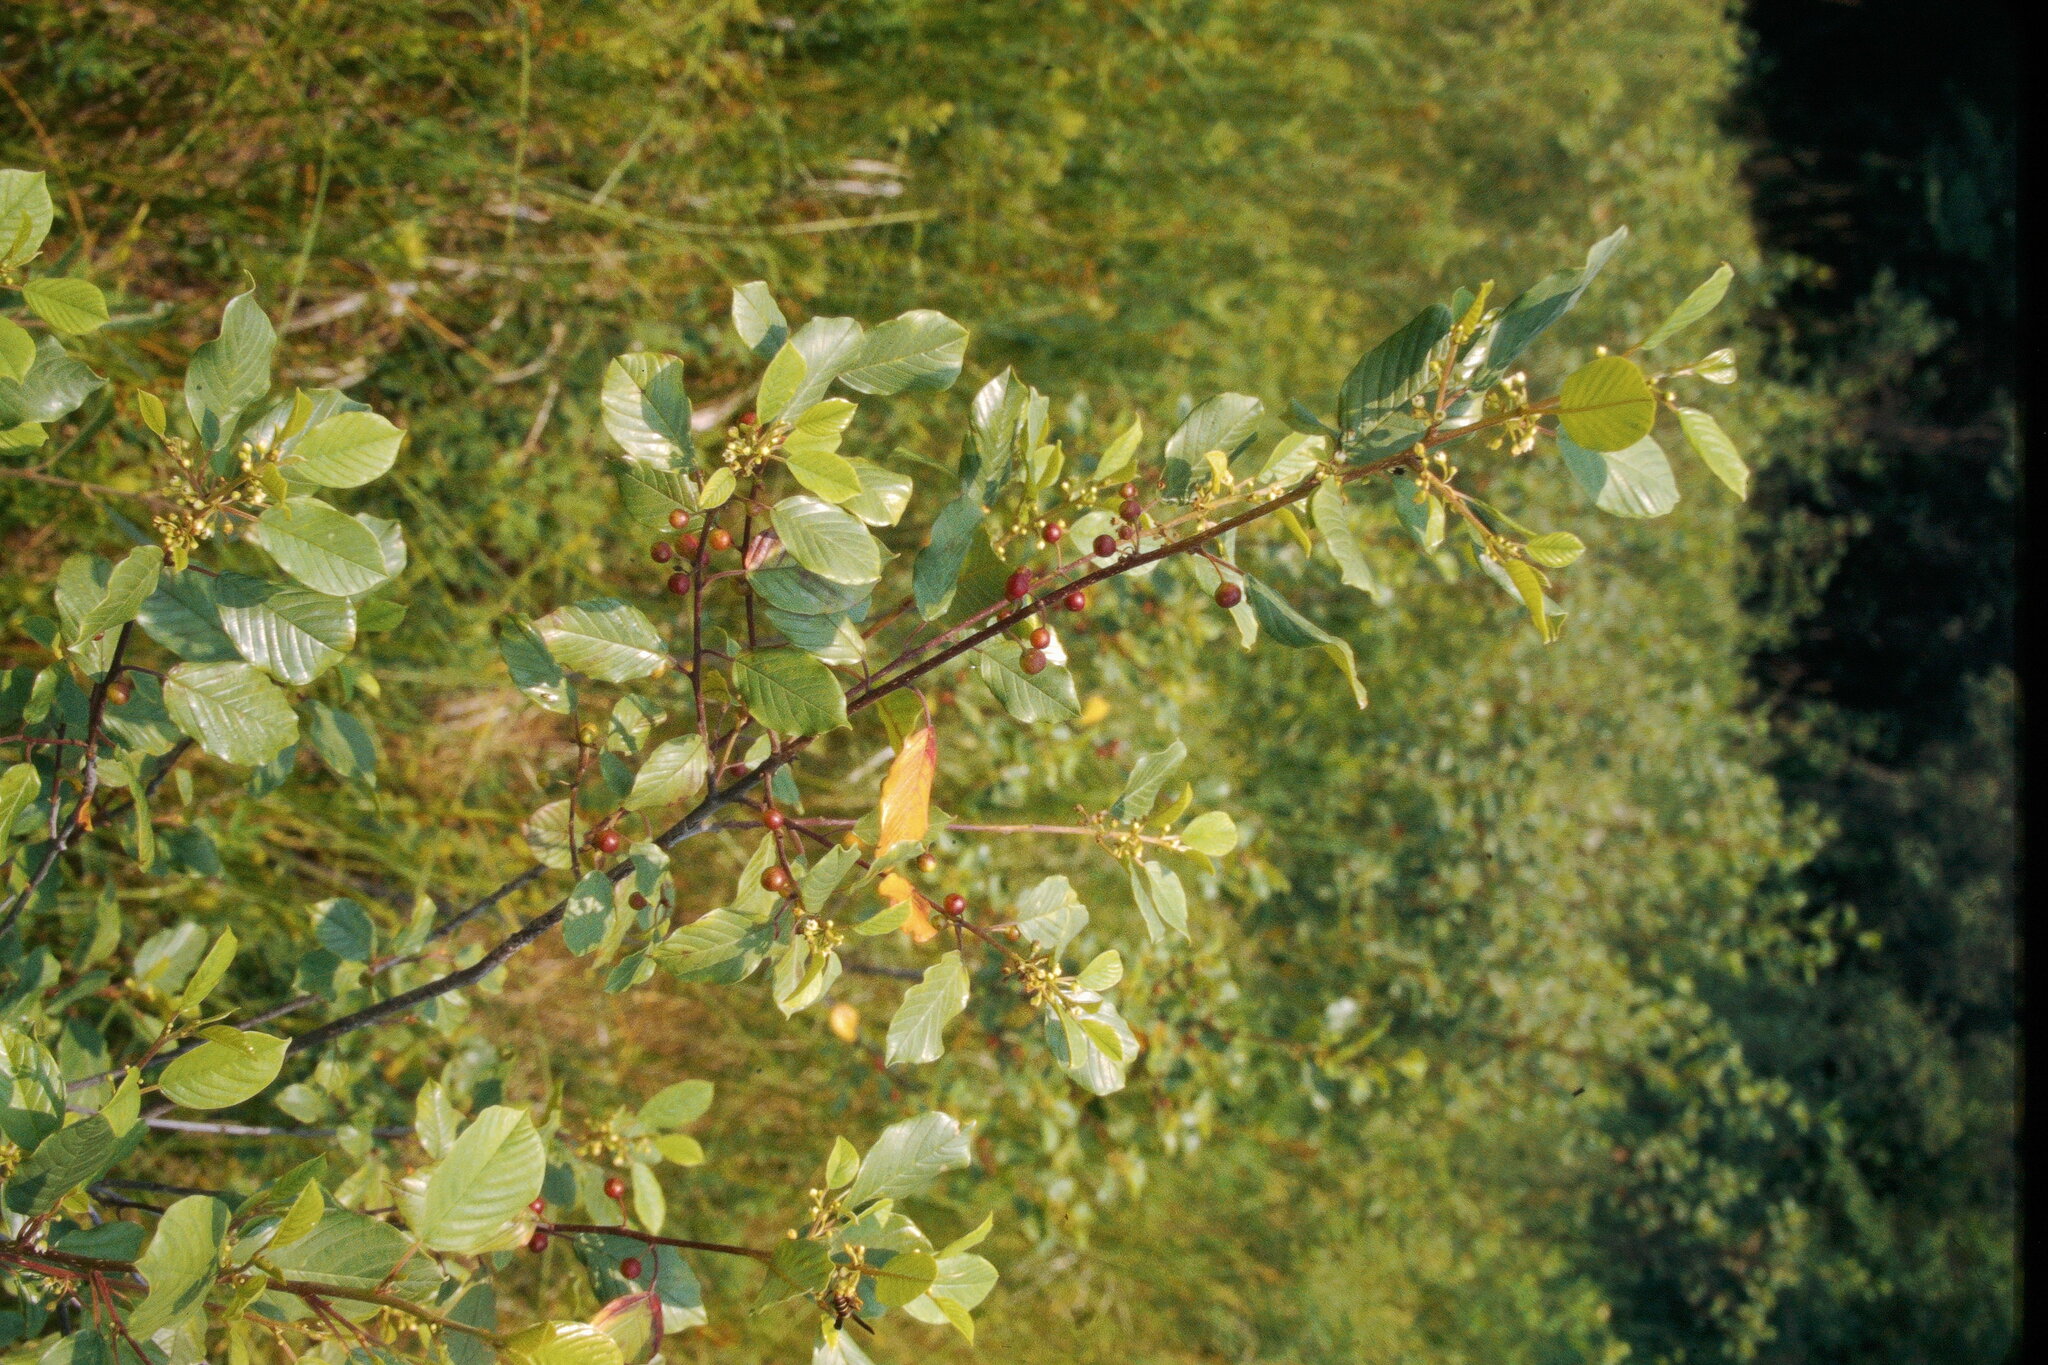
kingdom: Plantae
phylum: Tracheophyta
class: Magnoliopsida
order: Rosales
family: Rhamnaceae
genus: Frangula
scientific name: Frangula alnus
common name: Alder buckthorn
